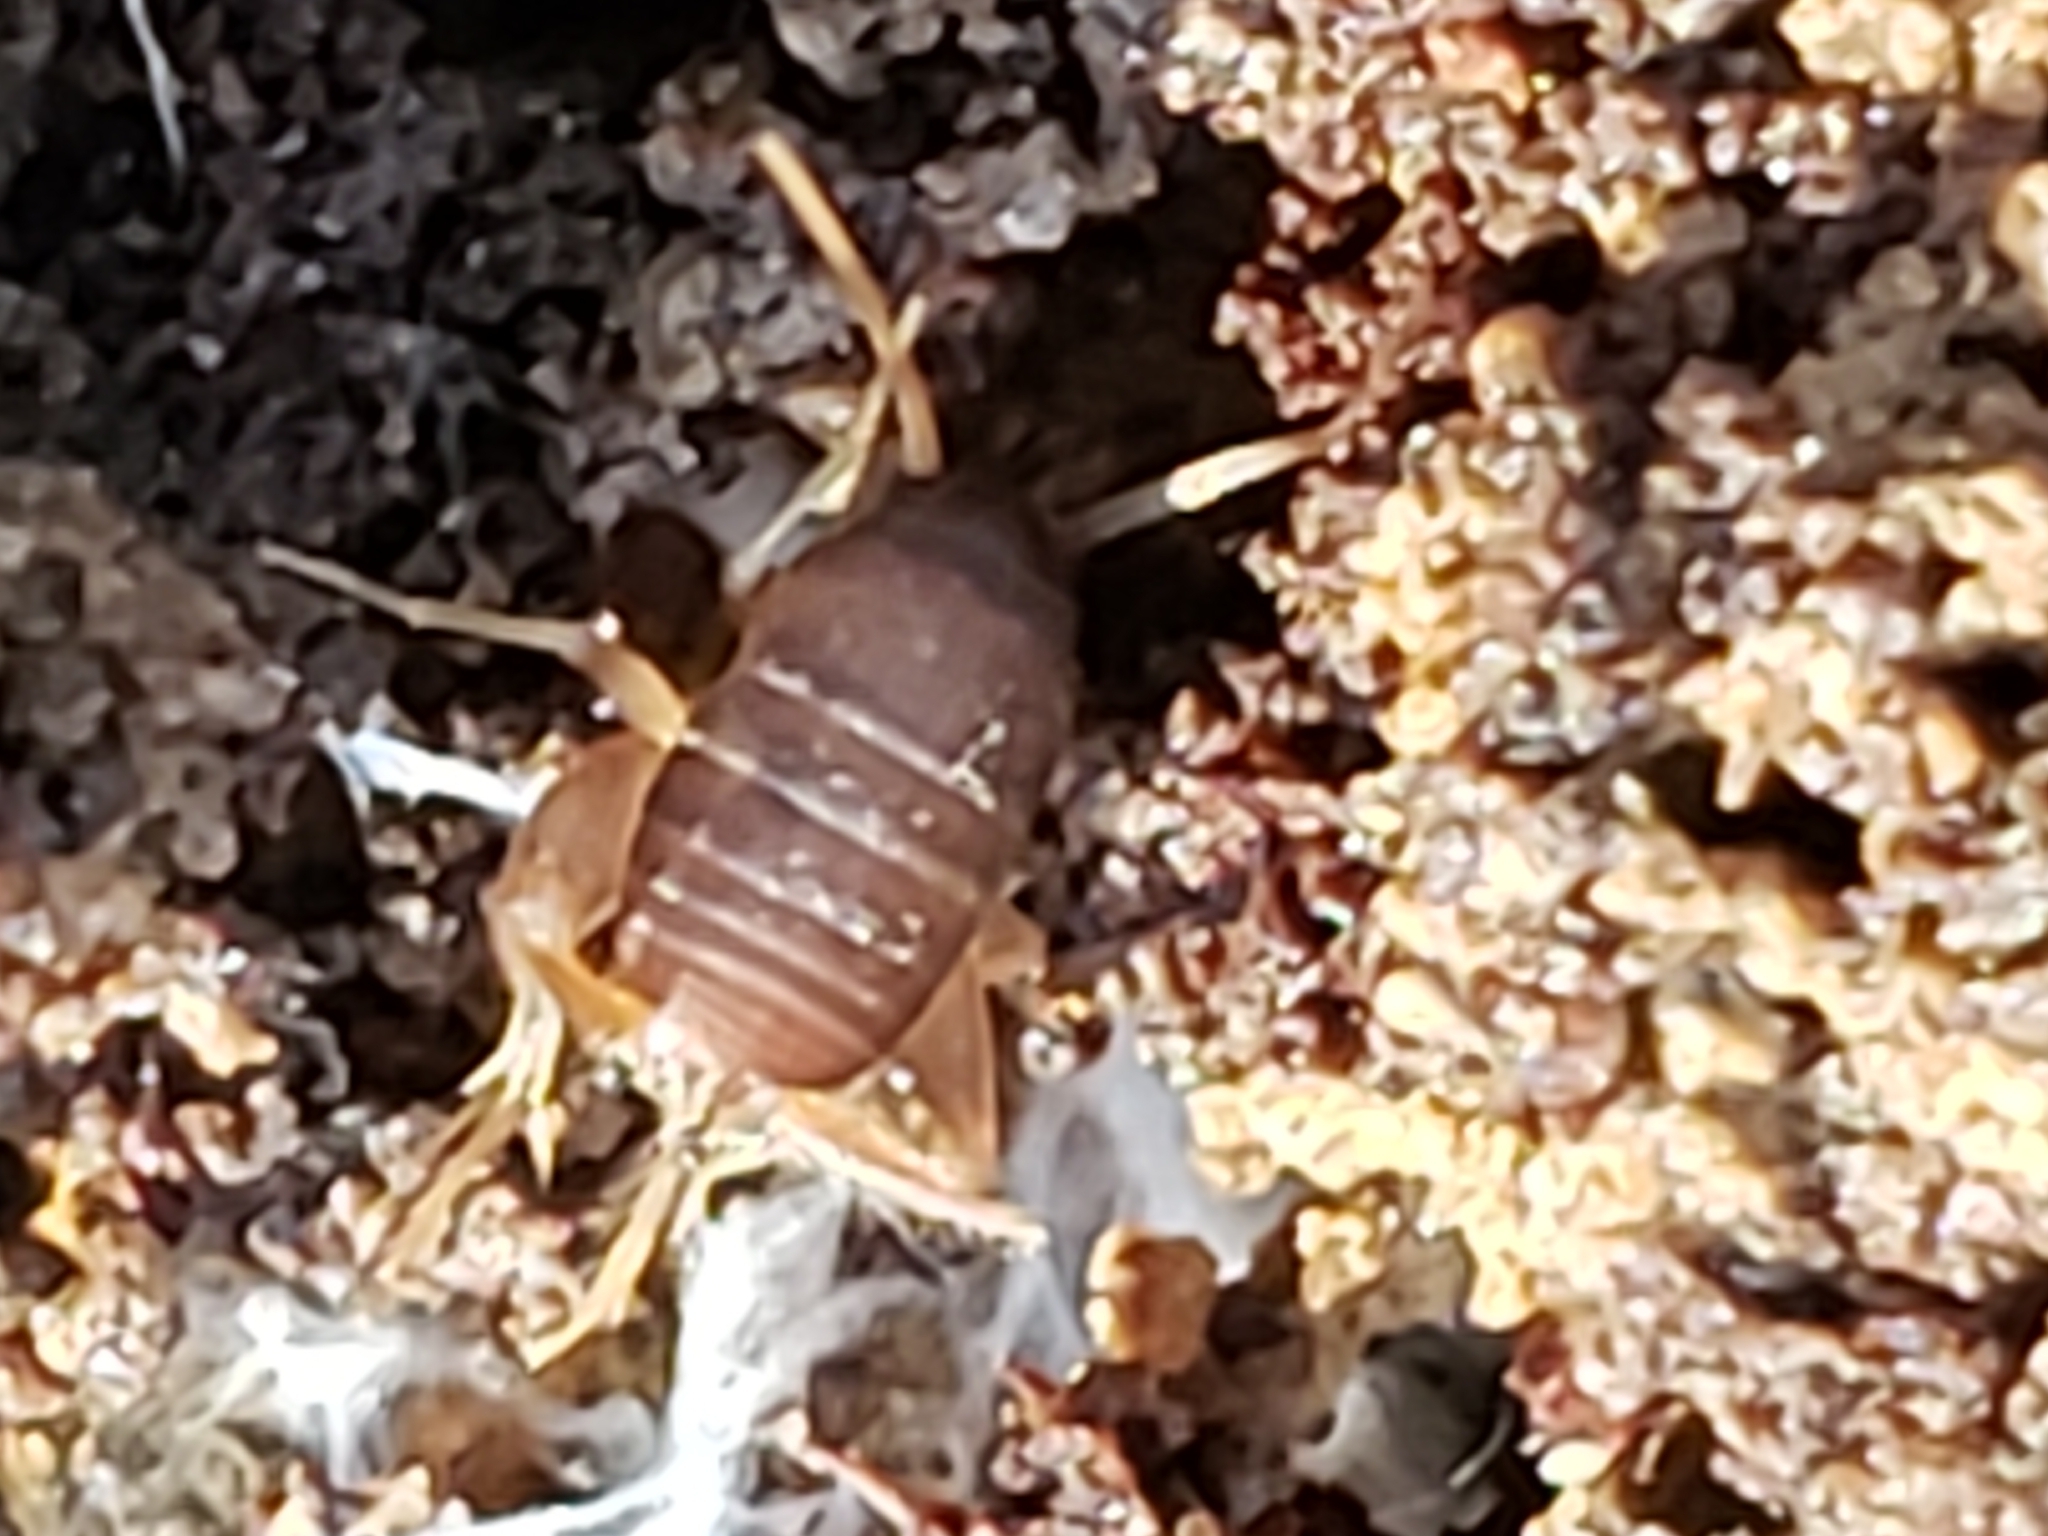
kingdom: Animalia
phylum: Arthropoda
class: Insecta
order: Orthoptera
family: Myrmecophilidae
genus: Myrmecophilus
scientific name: Myrmecophilus pergandei
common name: Eastern ant cricket
